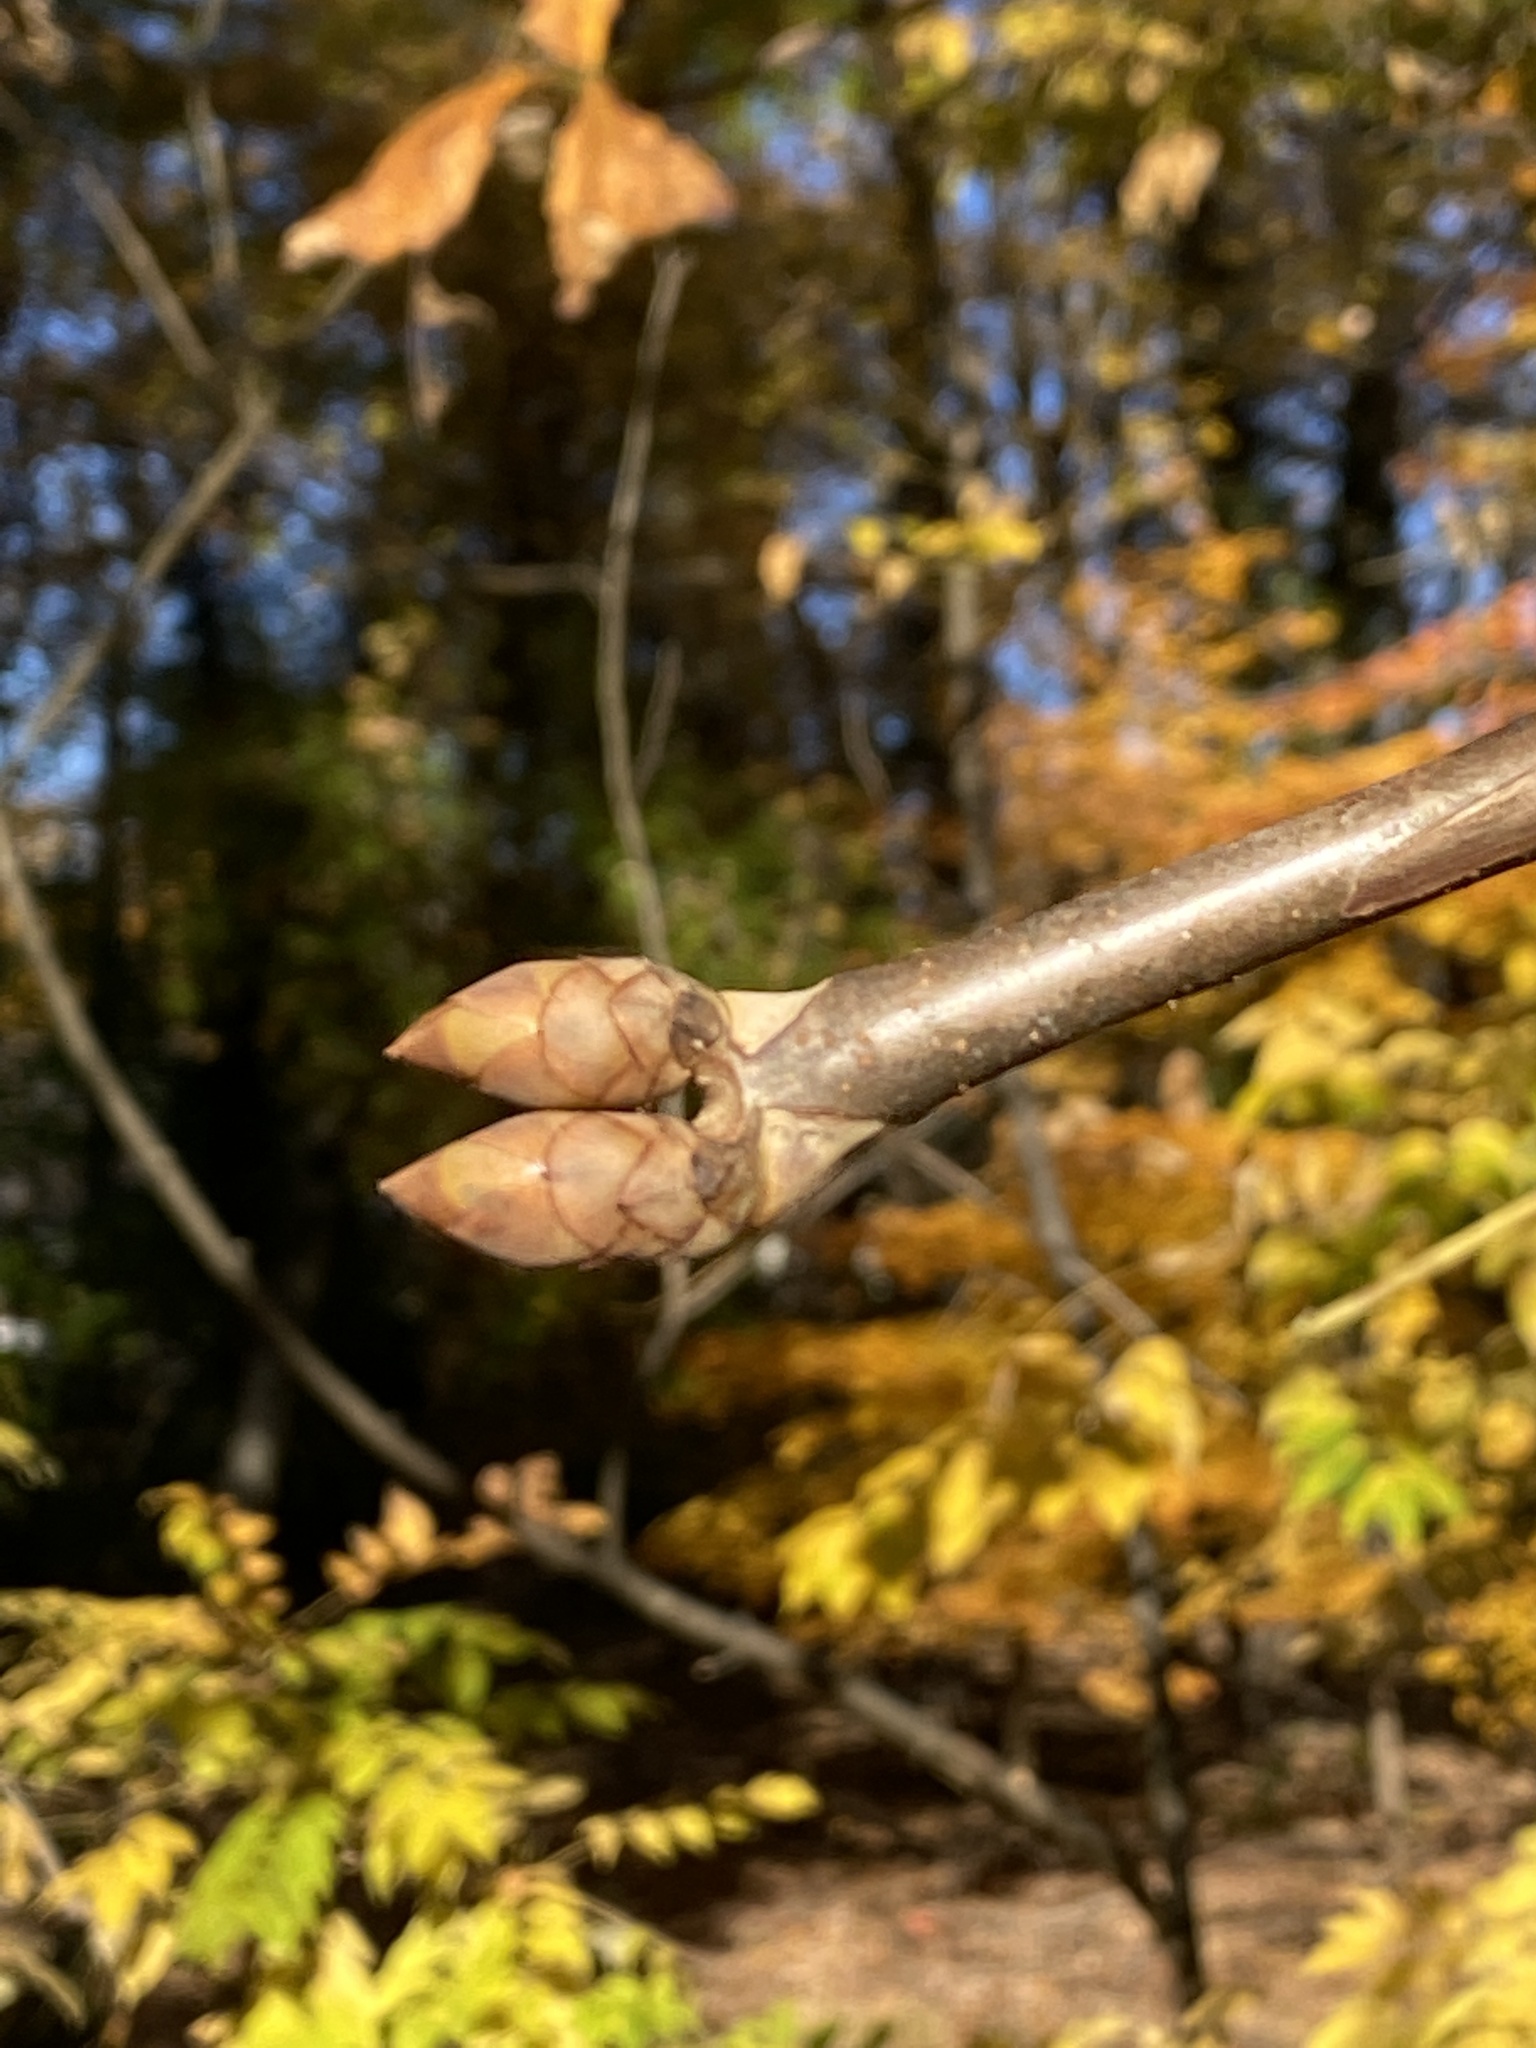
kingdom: Plantae
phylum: Tracheophyta
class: Magnoliopsida
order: Sapindales
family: Sapindaceae
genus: Aesculus
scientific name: Aesculus flava
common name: Yellow buckeye
